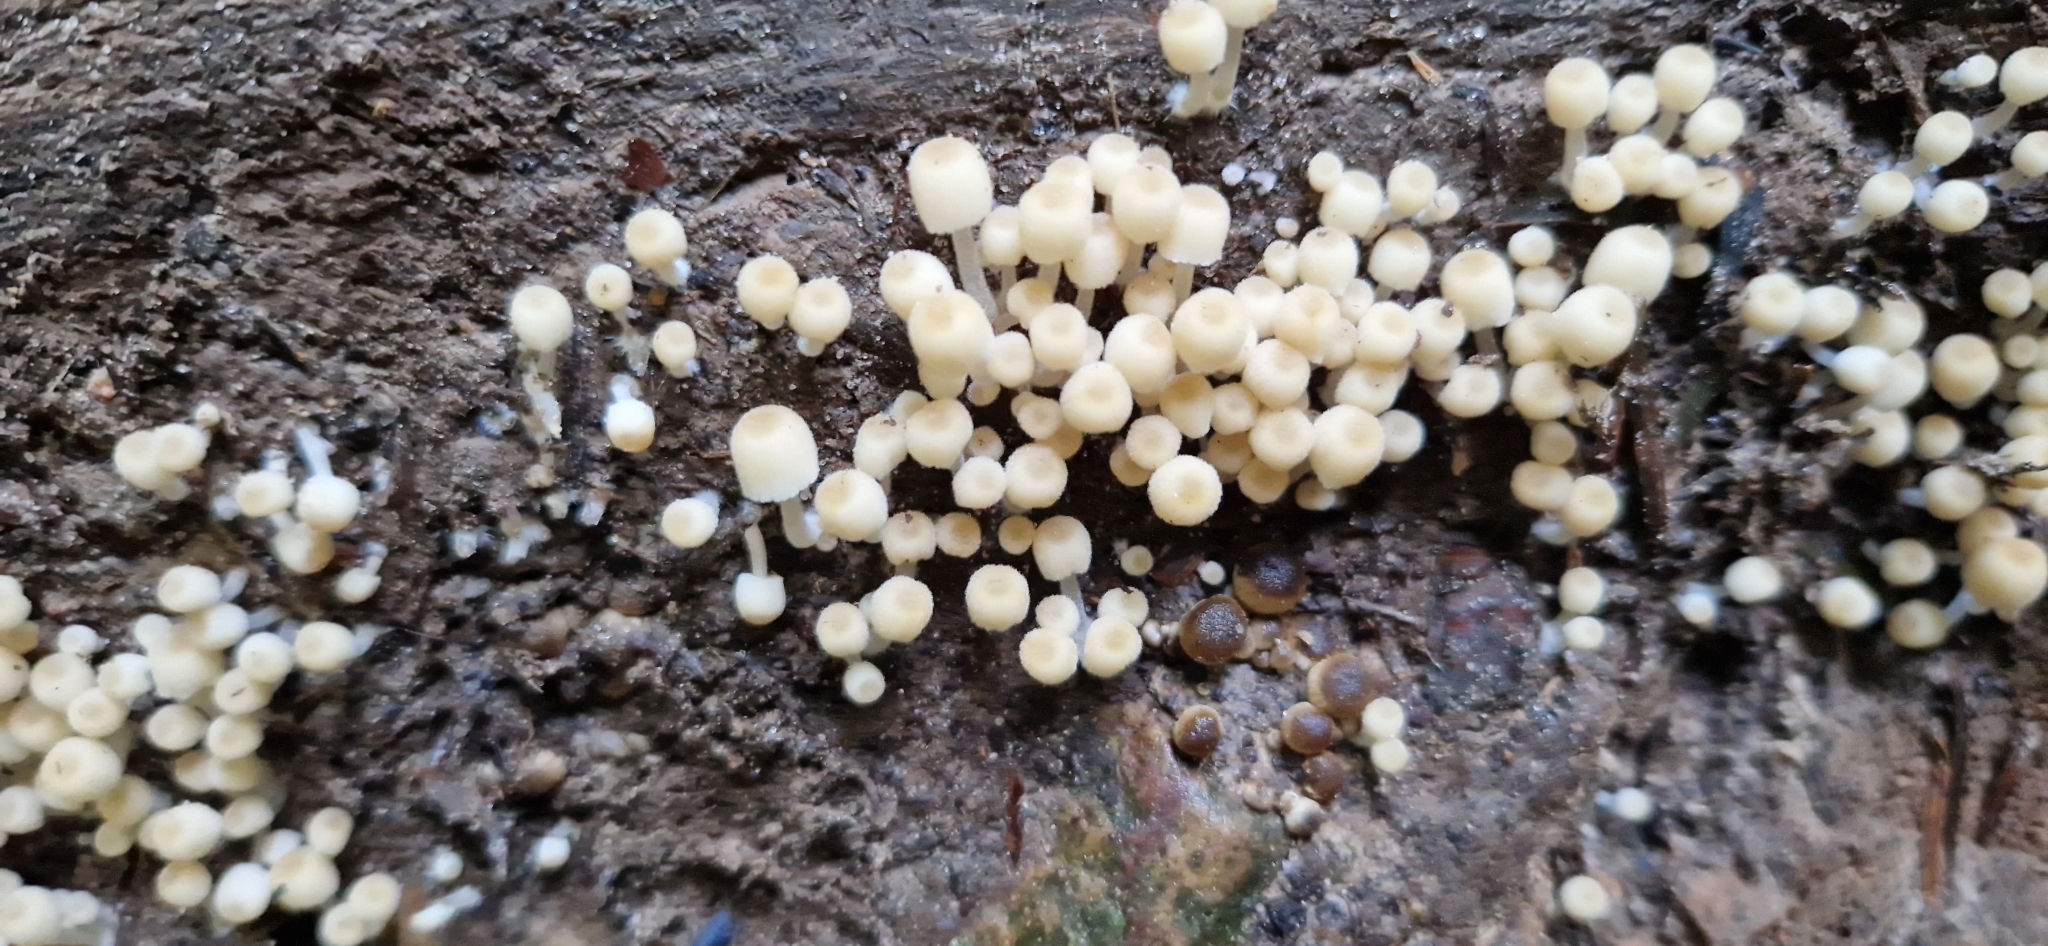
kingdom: Fungi
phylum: Basidiomycota
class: Agaricomycetes
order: Agaricales
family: Psathyrellaceae
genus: Coprinellus
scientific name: Coprinellus disseminatus
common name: Fairies' bonnets
